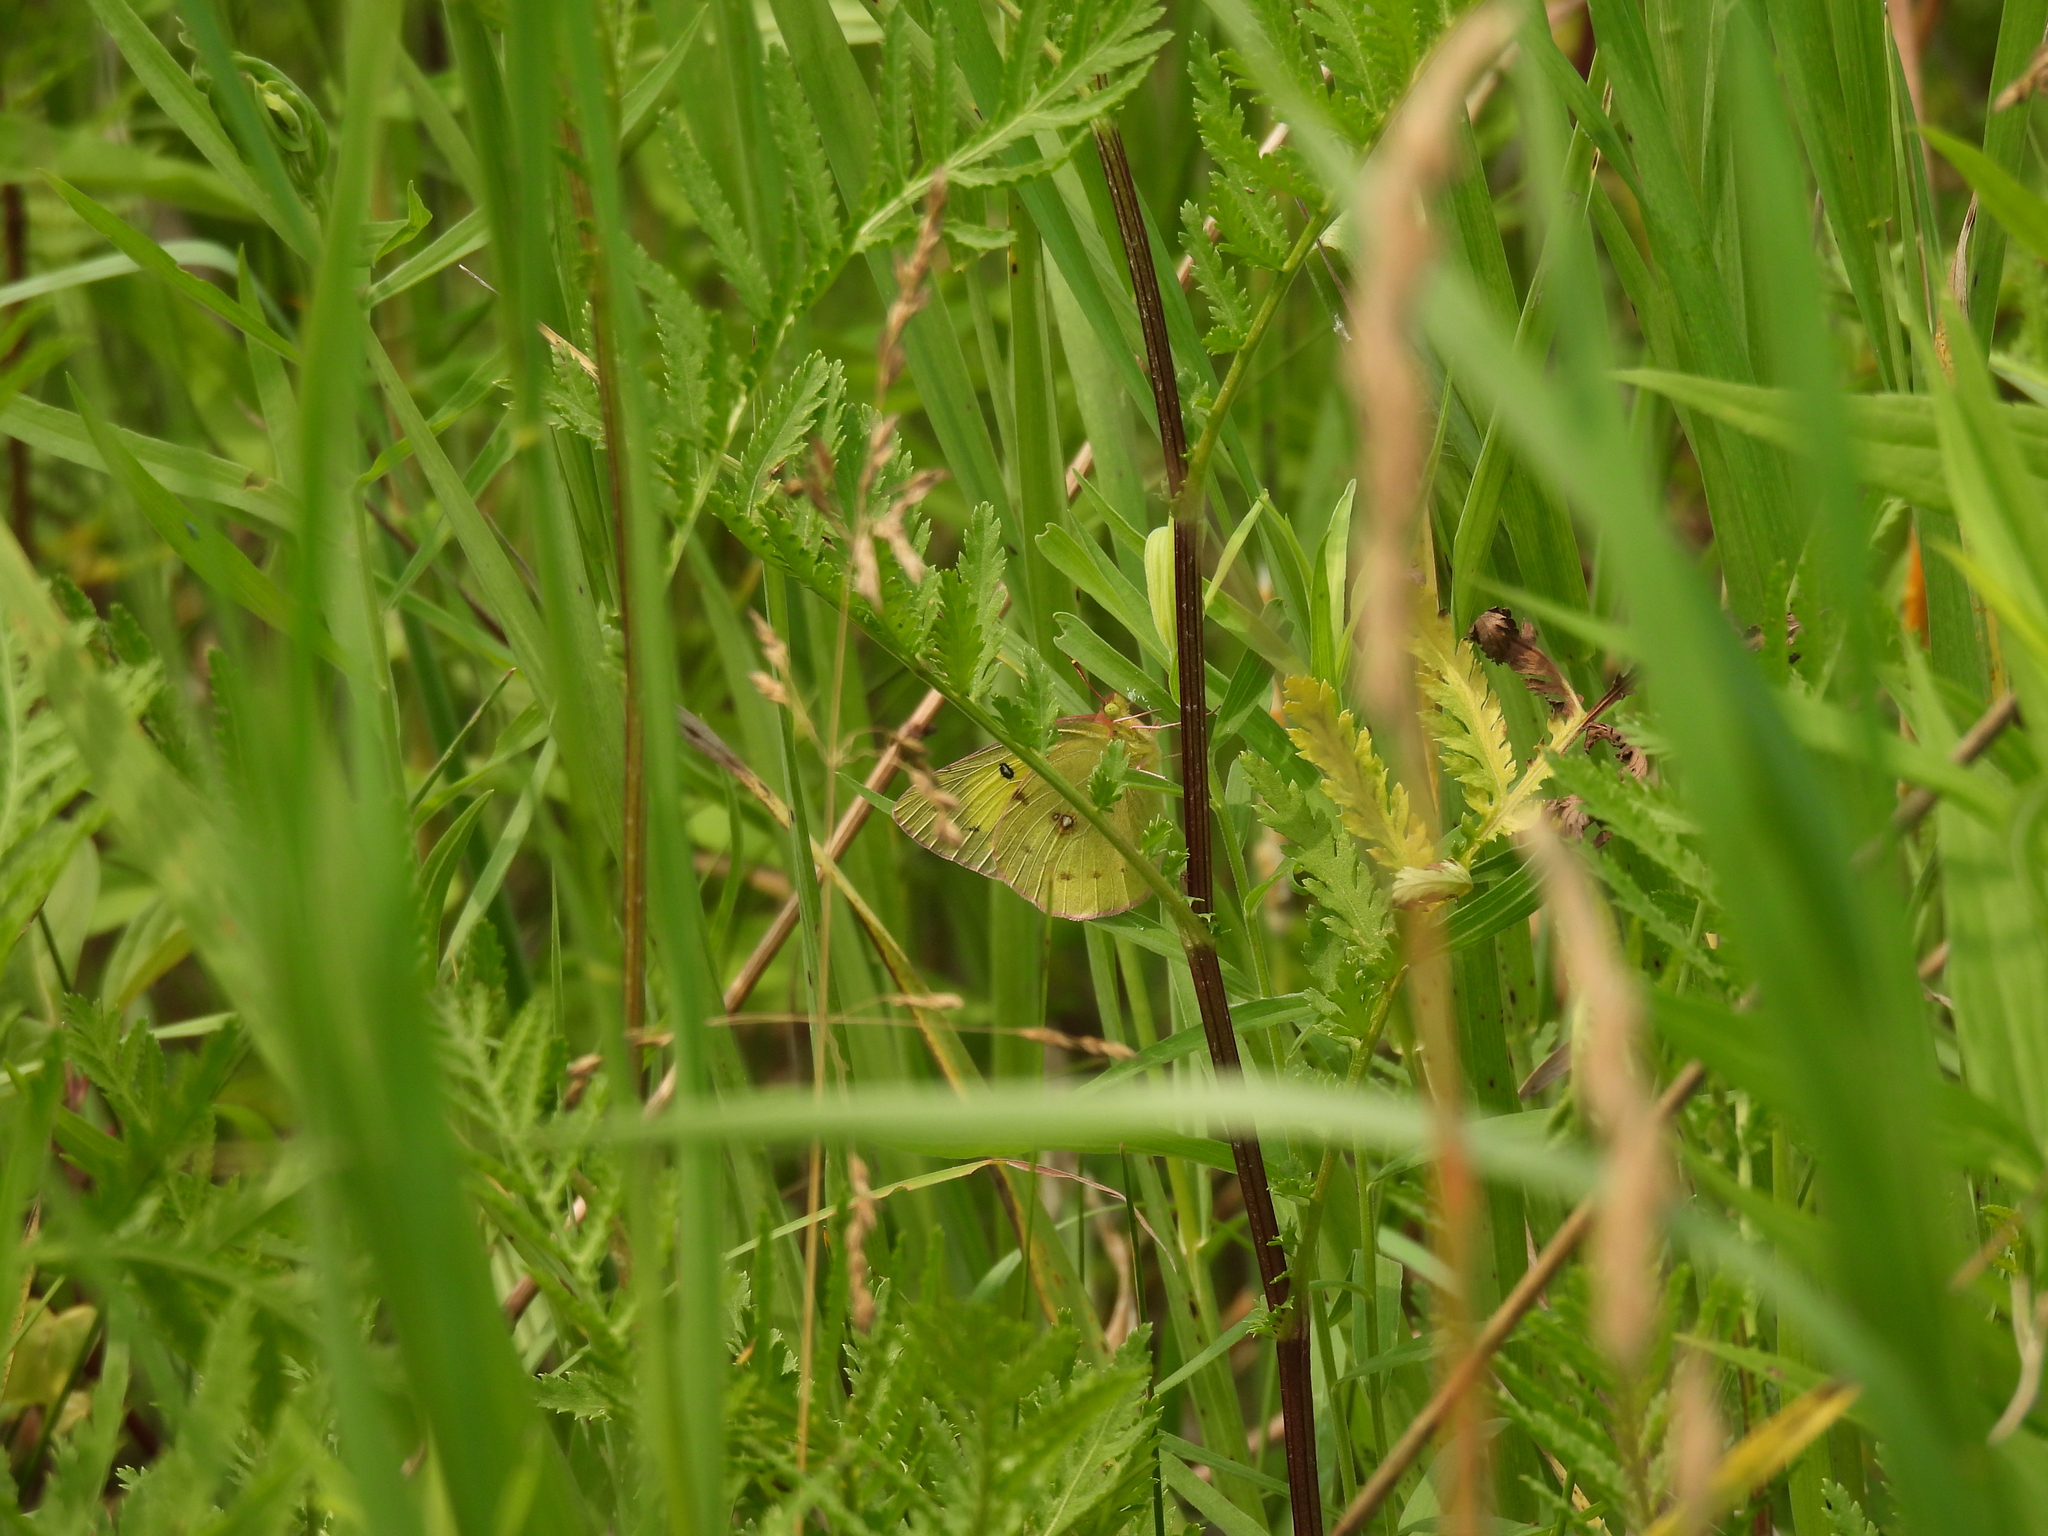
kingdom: Animalia
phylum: Arthropoda
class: Insecta
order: Lepidoptera
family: Pieridae
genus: Colias
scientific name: Colias philodice
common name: Clouded sulphur
